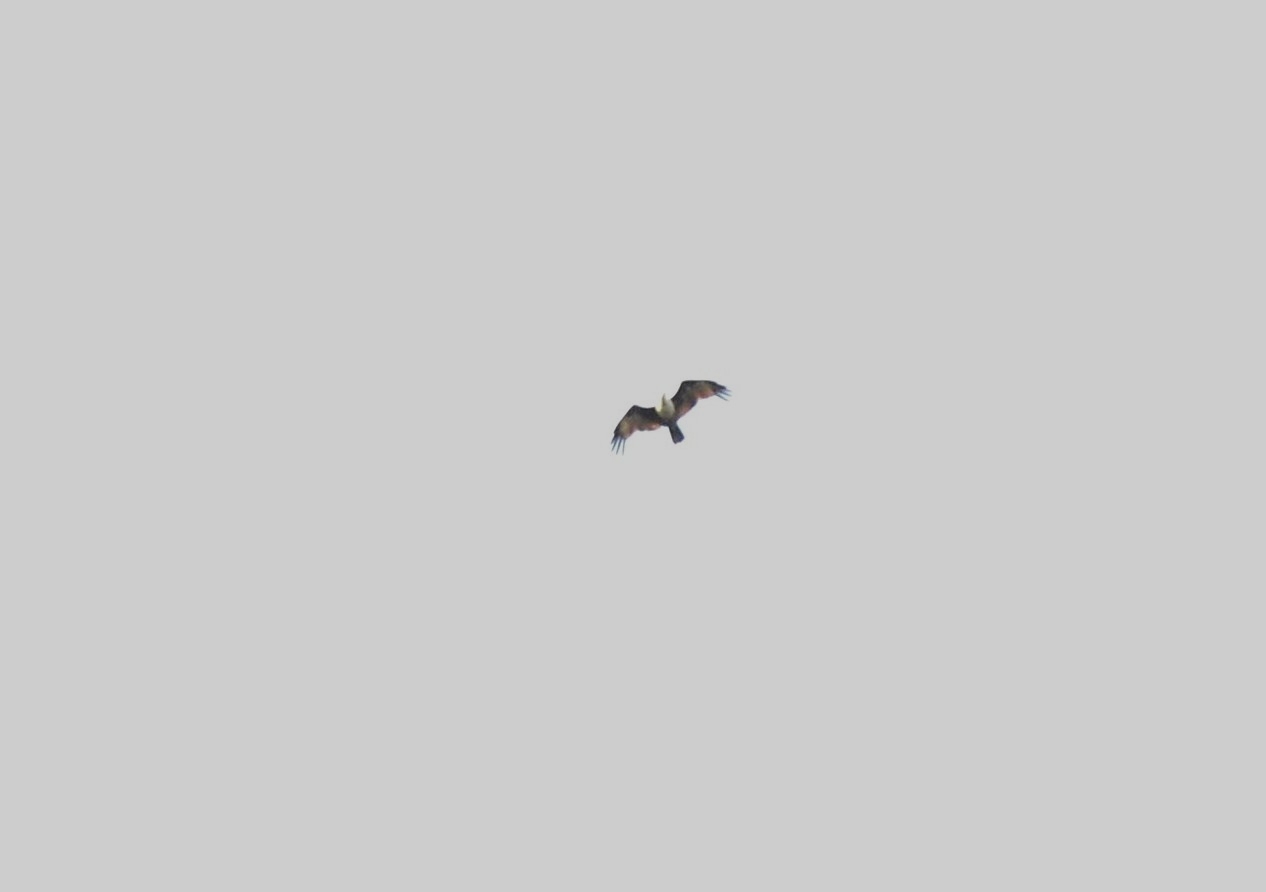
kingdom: Animalia
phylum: Chordata
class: Aves
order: Accipitriformes
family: Accipitridae
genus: Haliastur
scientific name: Haliastur indus
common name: Brahminy kite
